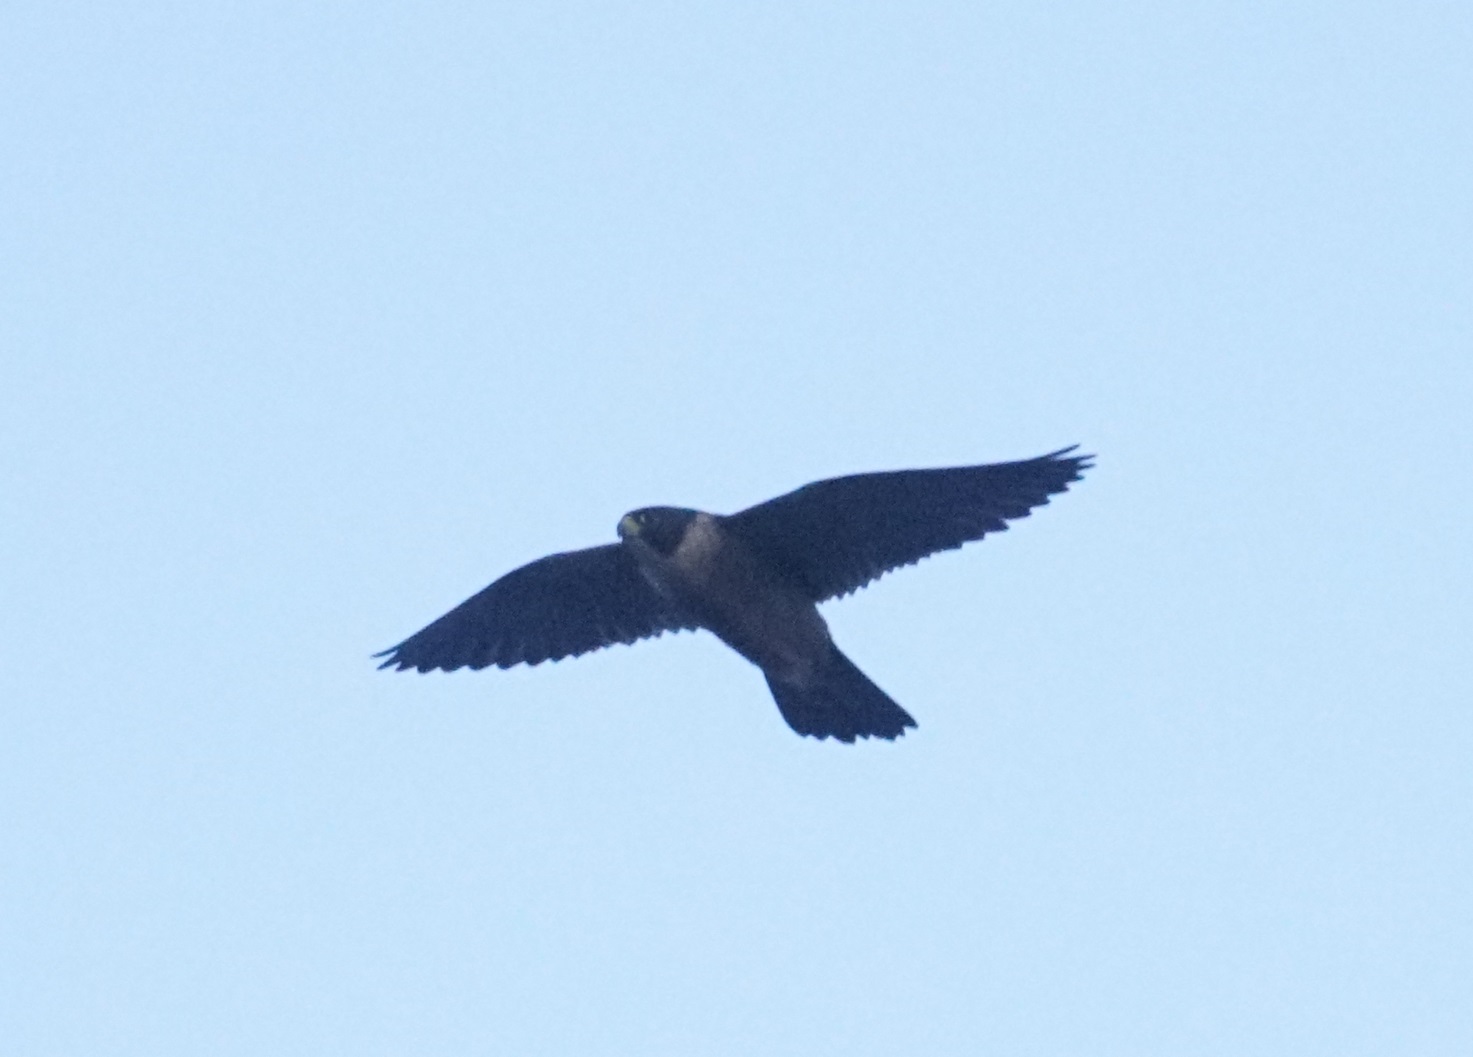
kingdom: Animalia
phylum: Chordata
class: Aves
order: Falconiformes
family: Falconidae
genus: Falco
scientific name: Falco peregrinus
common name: Peregrine falcon
